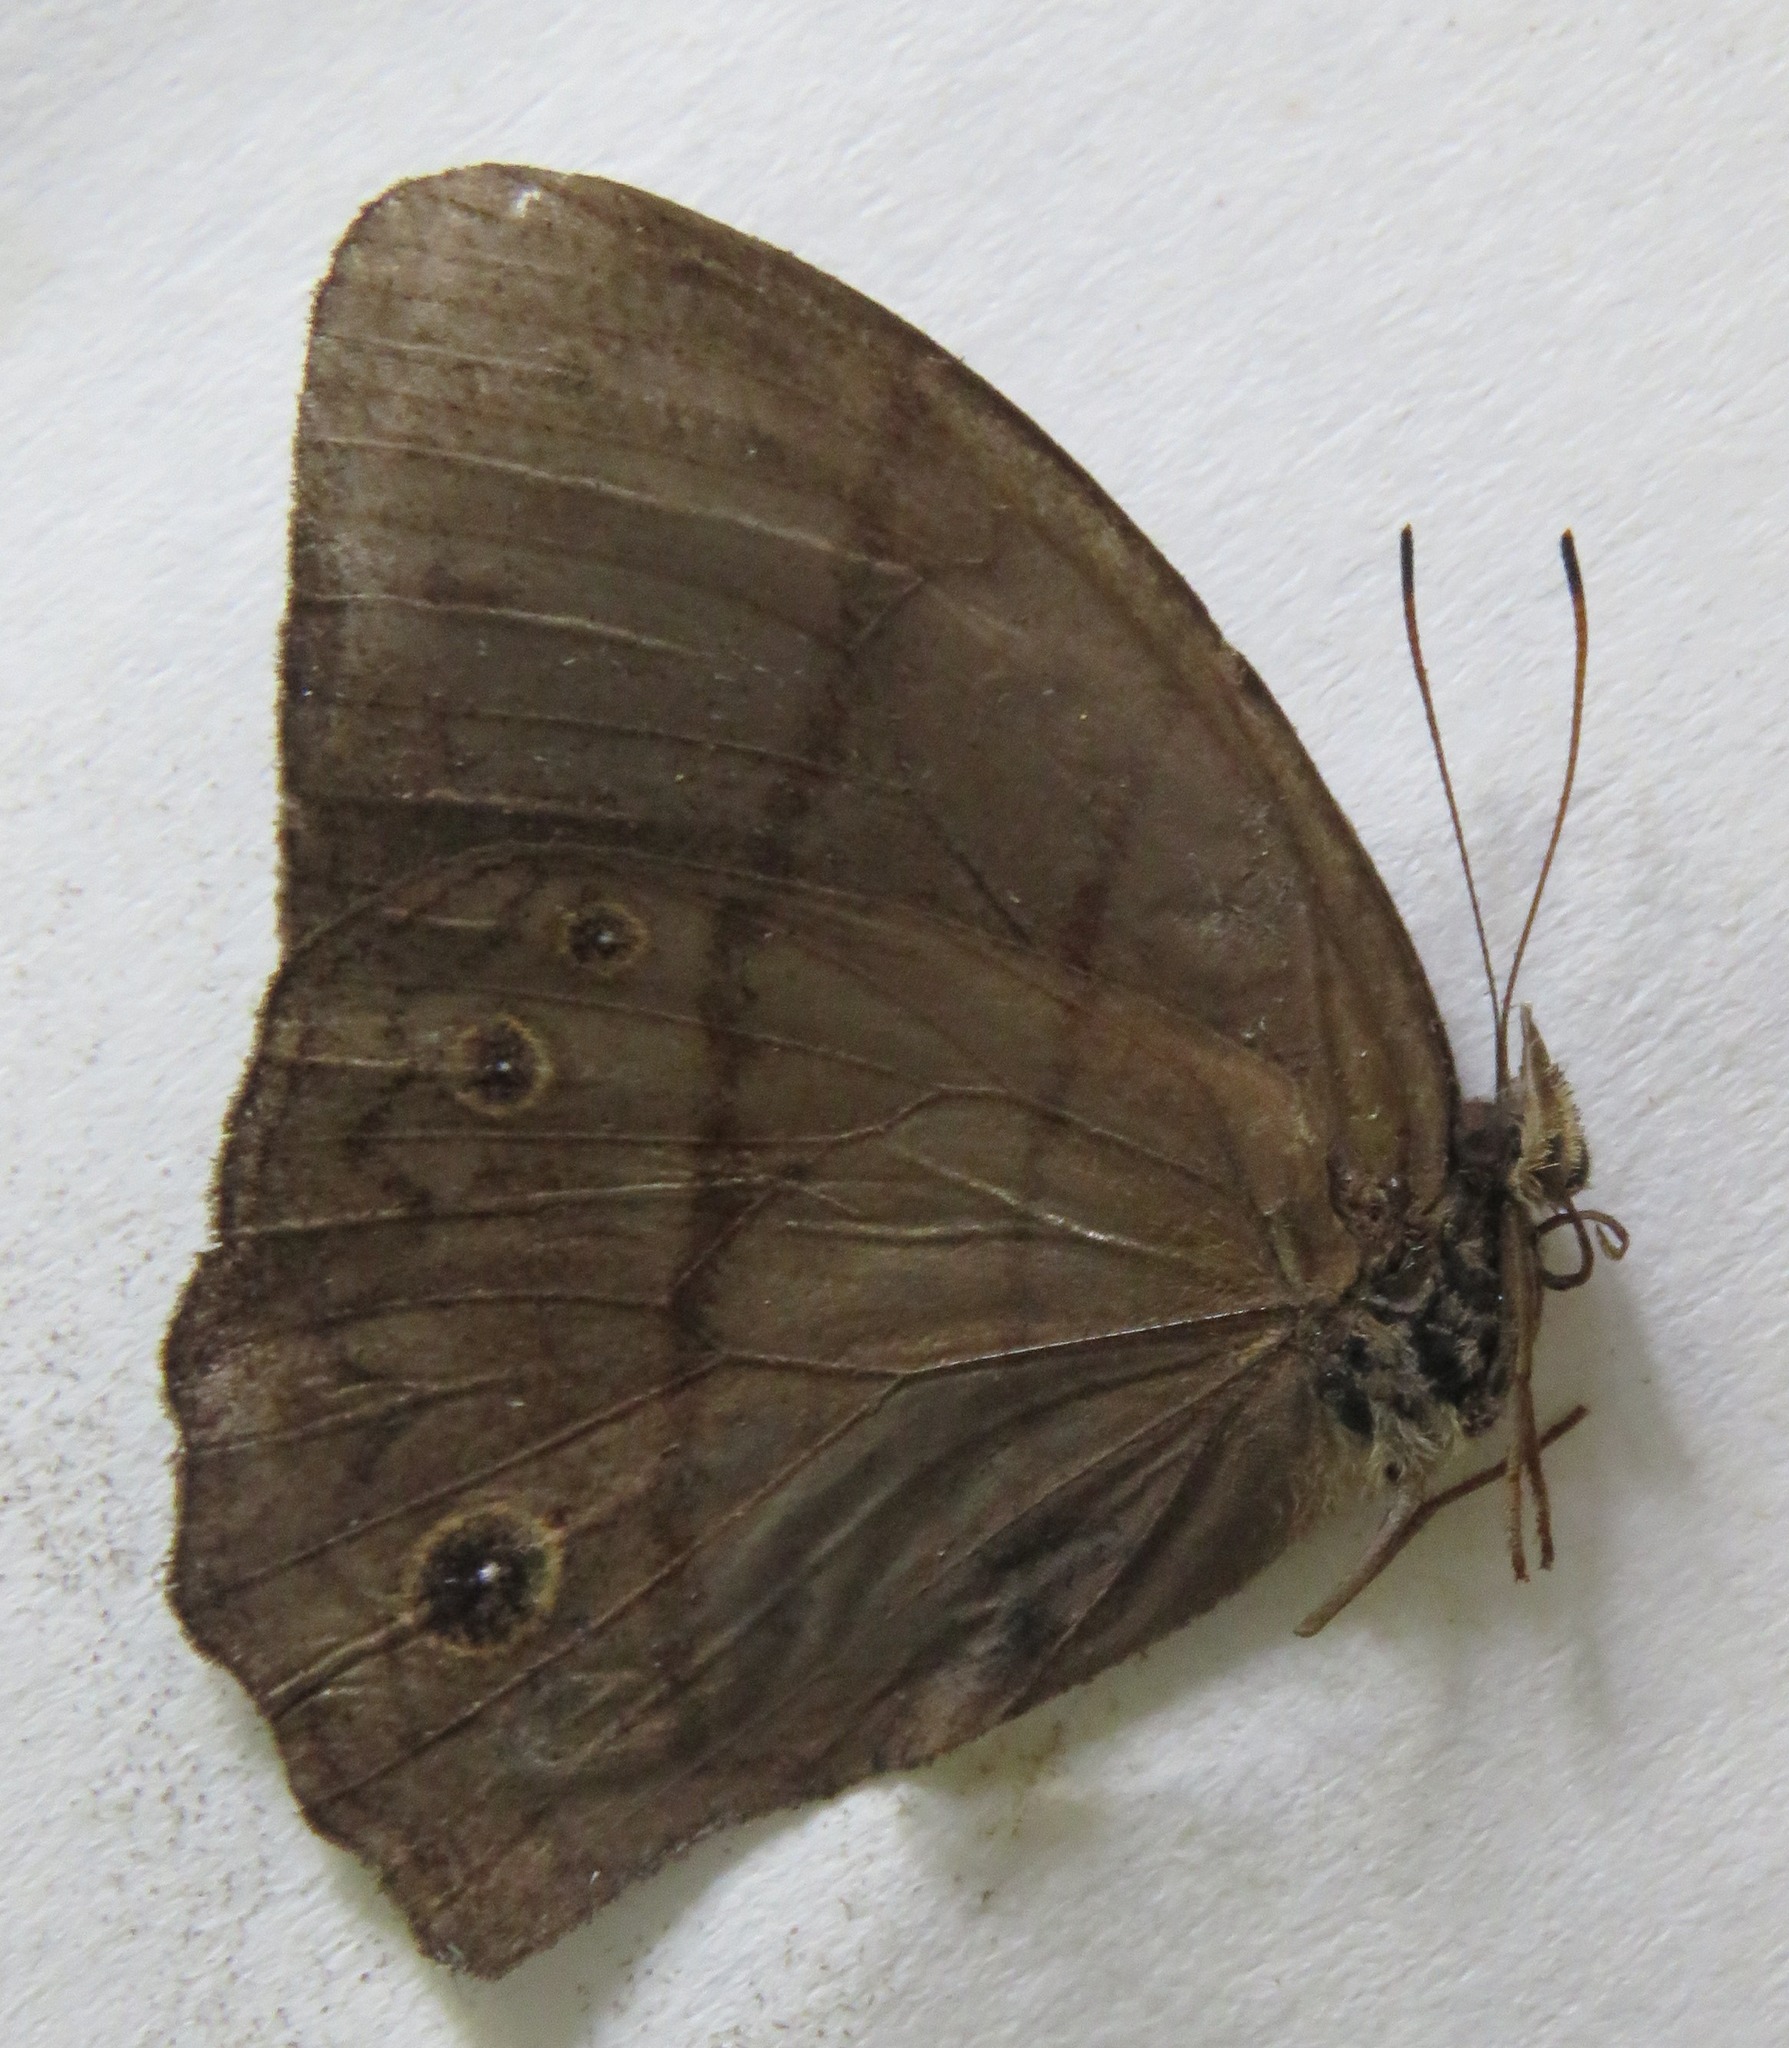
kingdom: Animalia
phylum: Arthropoda
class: Insecta
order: Lepidoptera
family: Nymphalidae
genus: Satyrotaygetis
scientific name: Satyrotaygetis satyrina
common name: Wide-bordered satyr
